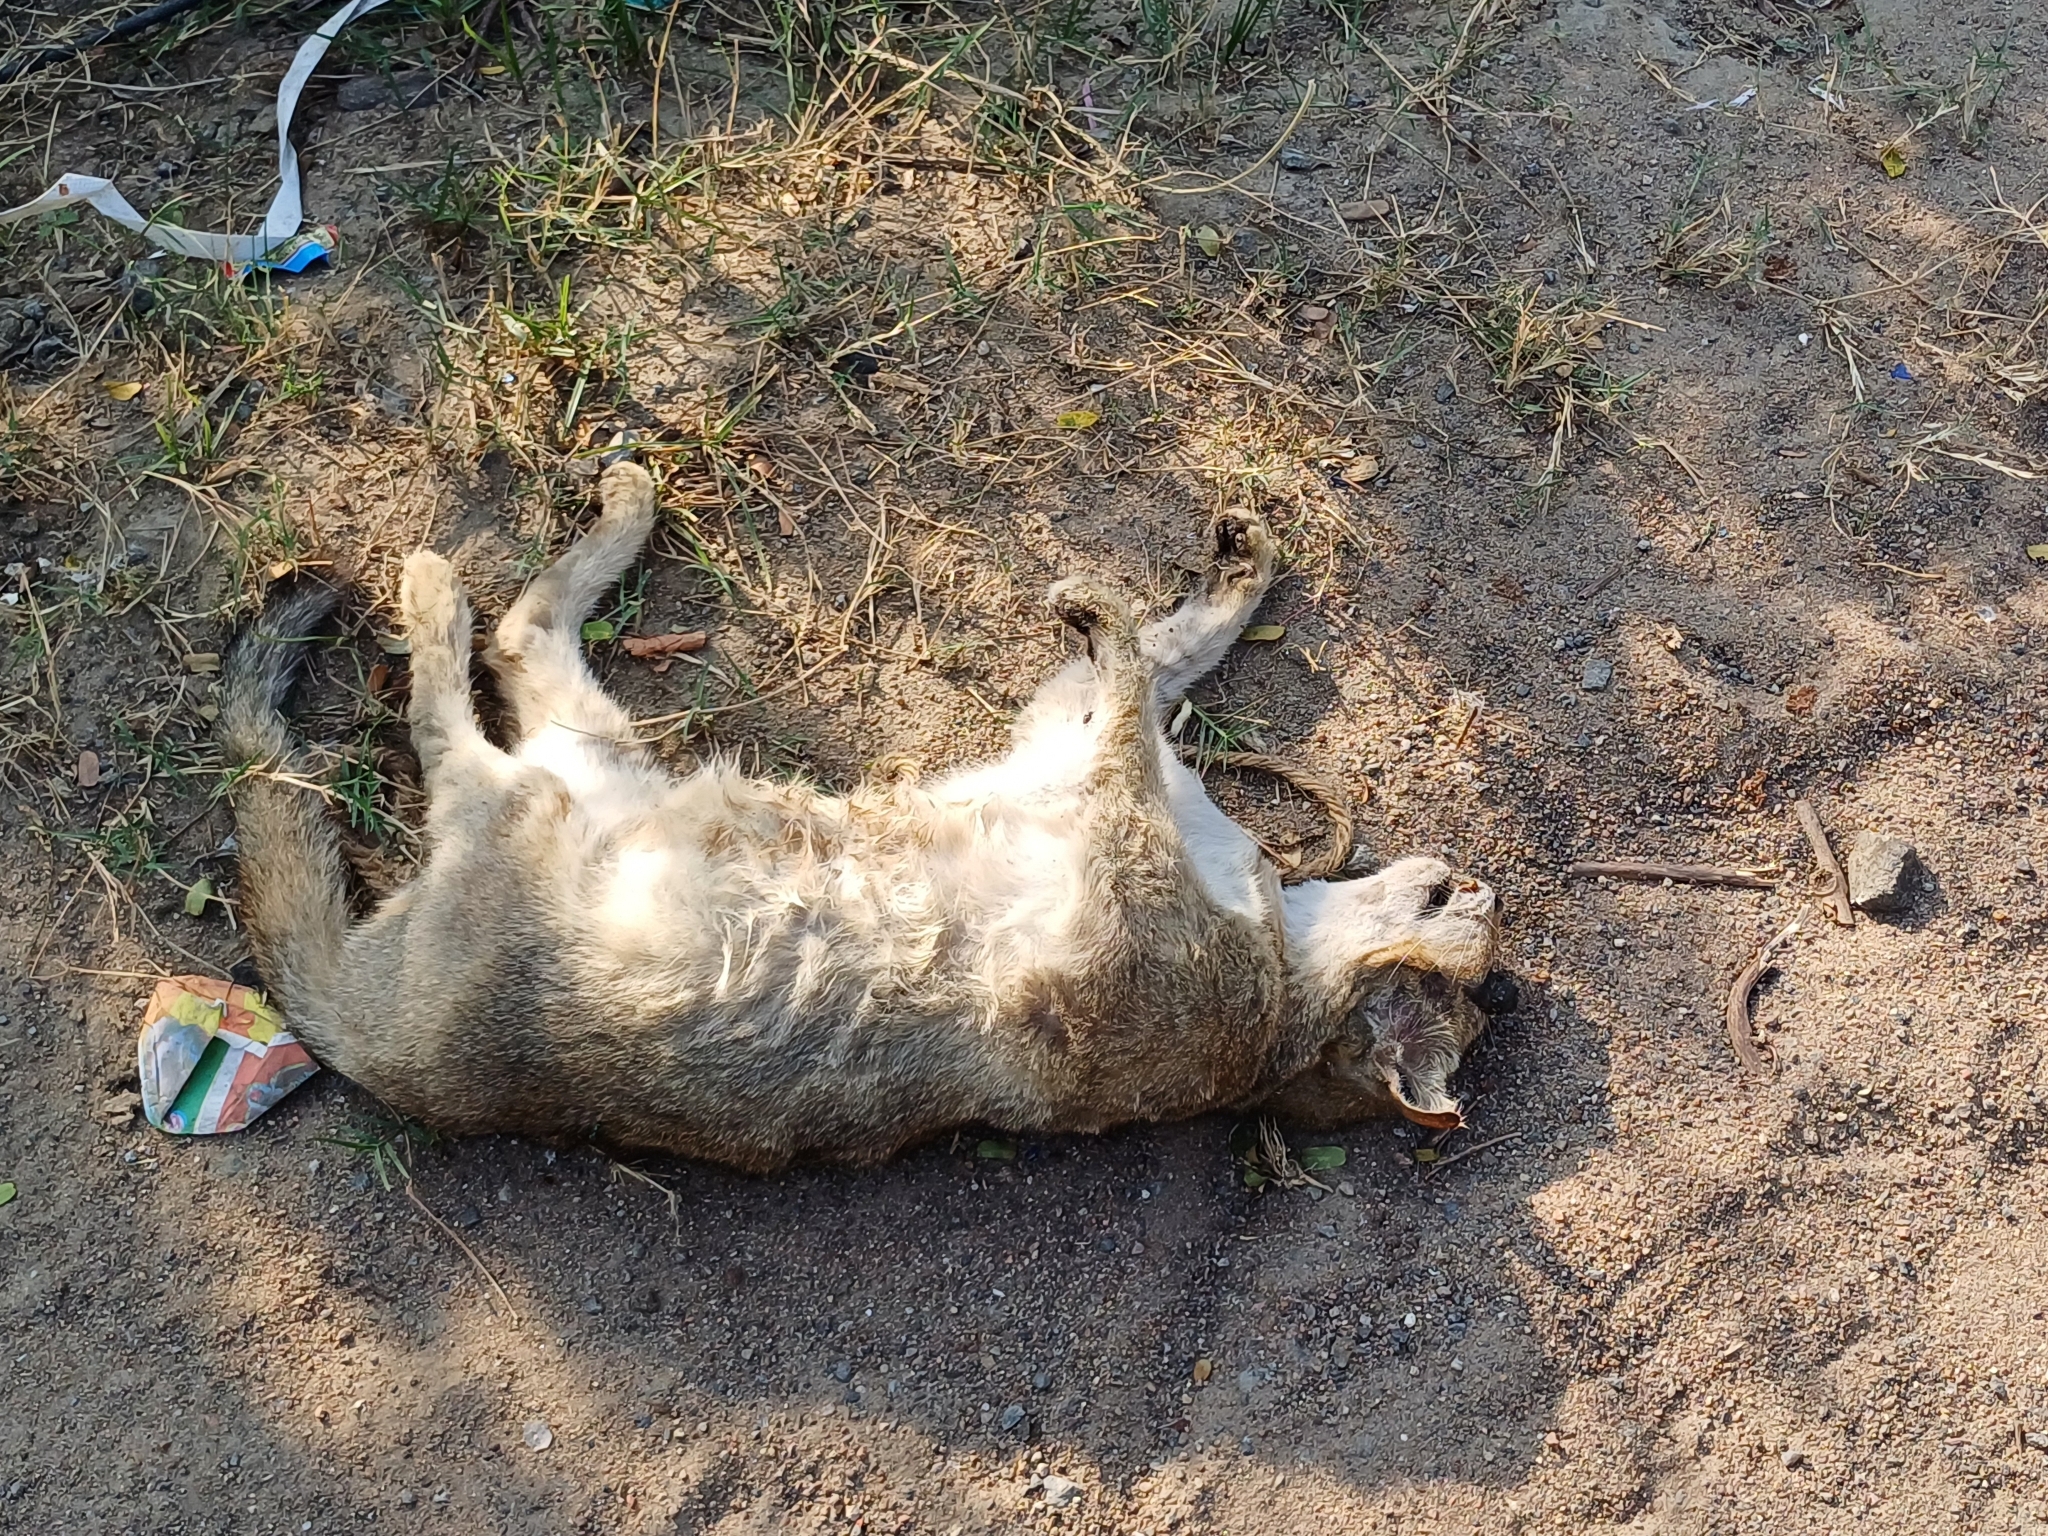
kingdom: Animalia
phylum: Chordata
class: Mammalia
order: Carnivora
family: Felidae
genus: Felis
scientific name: Felis chaus
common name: Jungle cat
